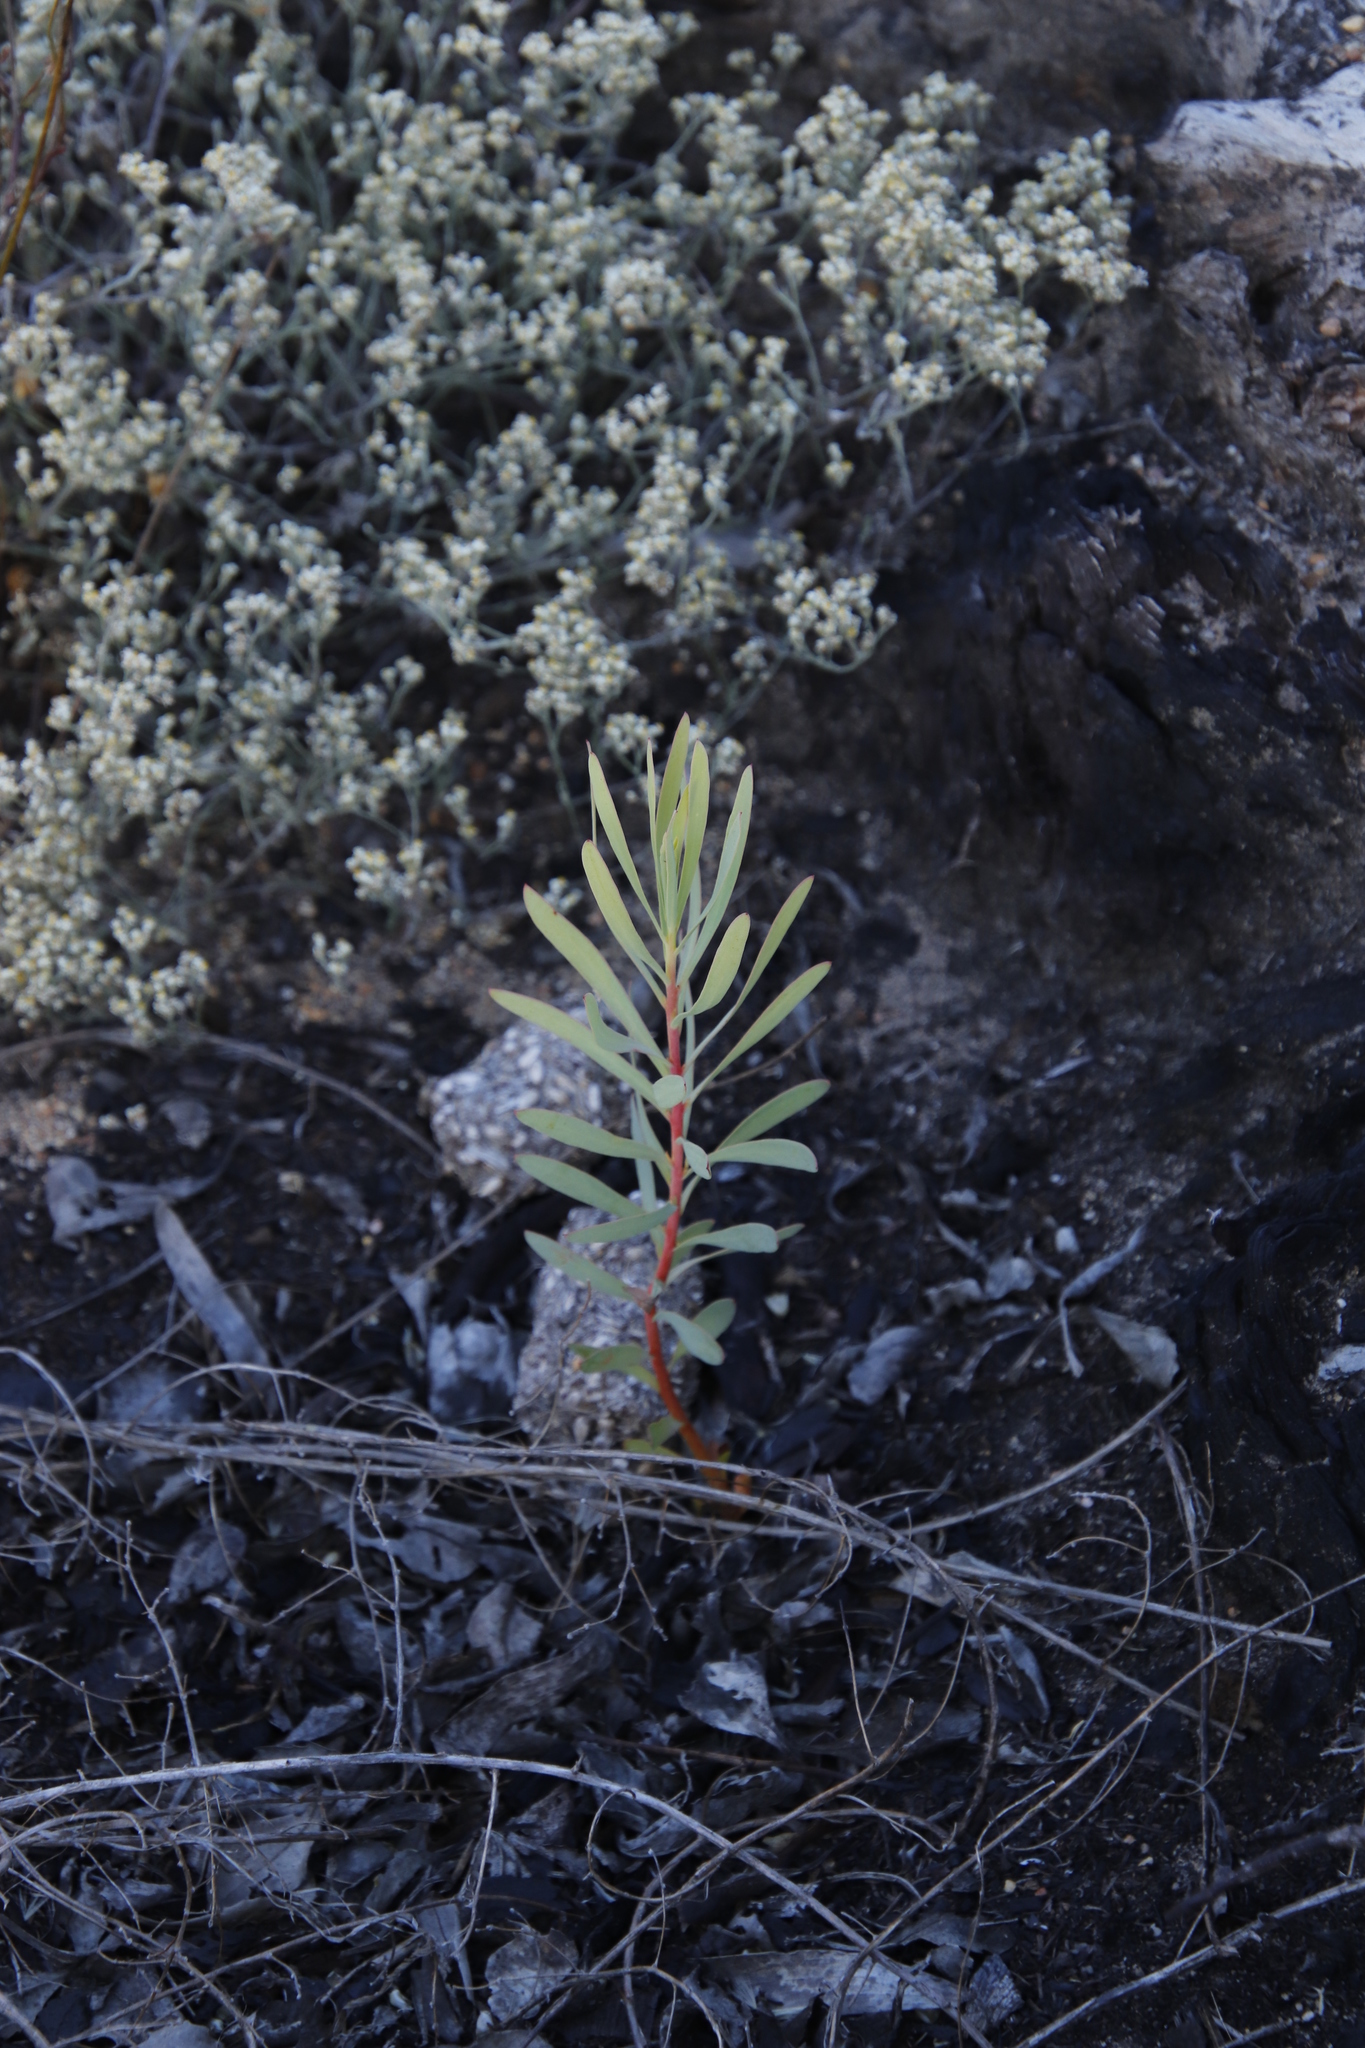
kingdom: Plantae
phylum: Tracheophyta
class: Magnoliopsida
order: Proteales
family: Proteaceae
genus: Protea
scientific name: Protea repens
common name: Sugarbush
